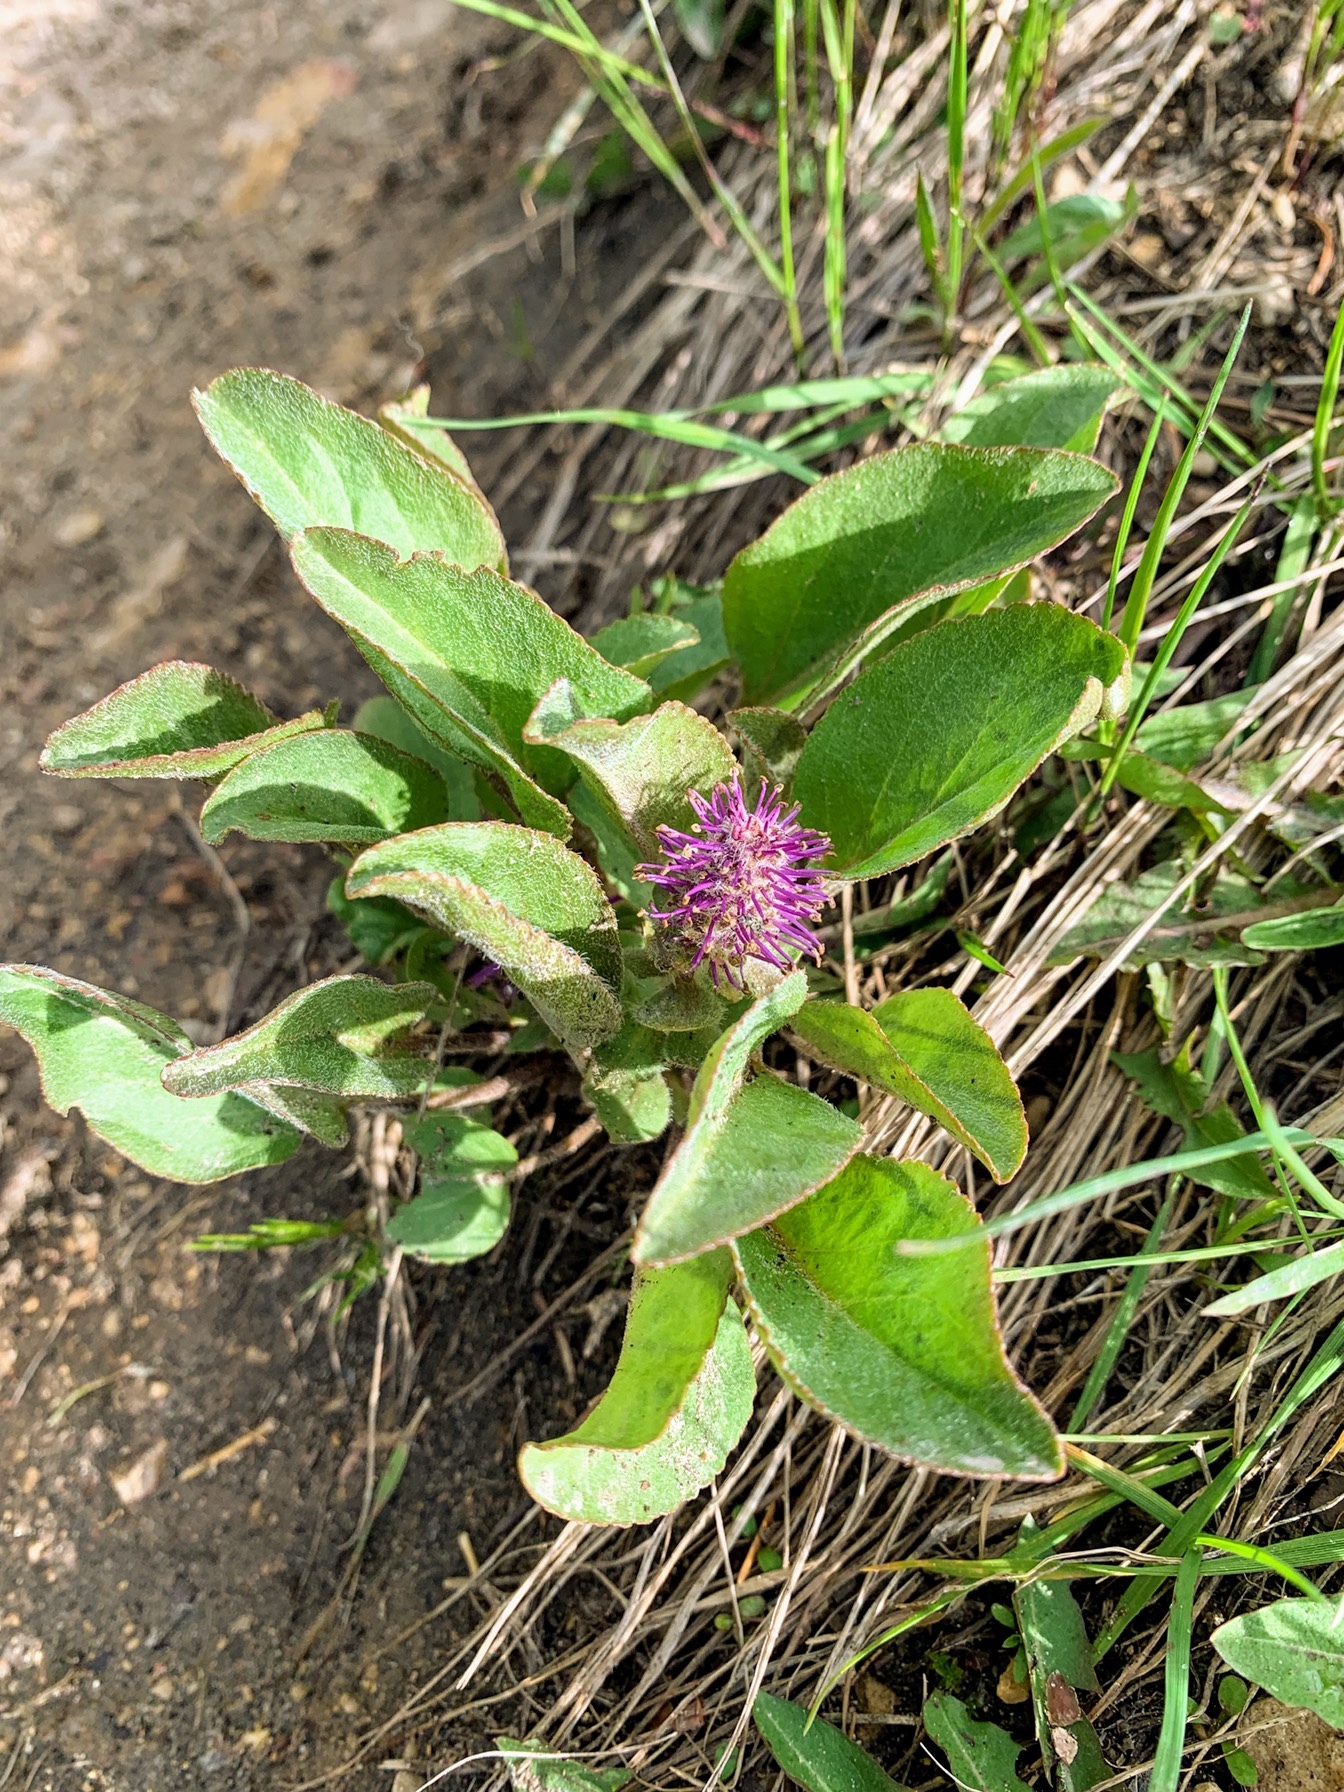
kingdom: Plantae
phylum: Tracheophyta
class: Magnoliopsida
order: Lamiales
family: Plantaginaceae
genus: Synthyris
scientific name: Synthyris wyomingensis
